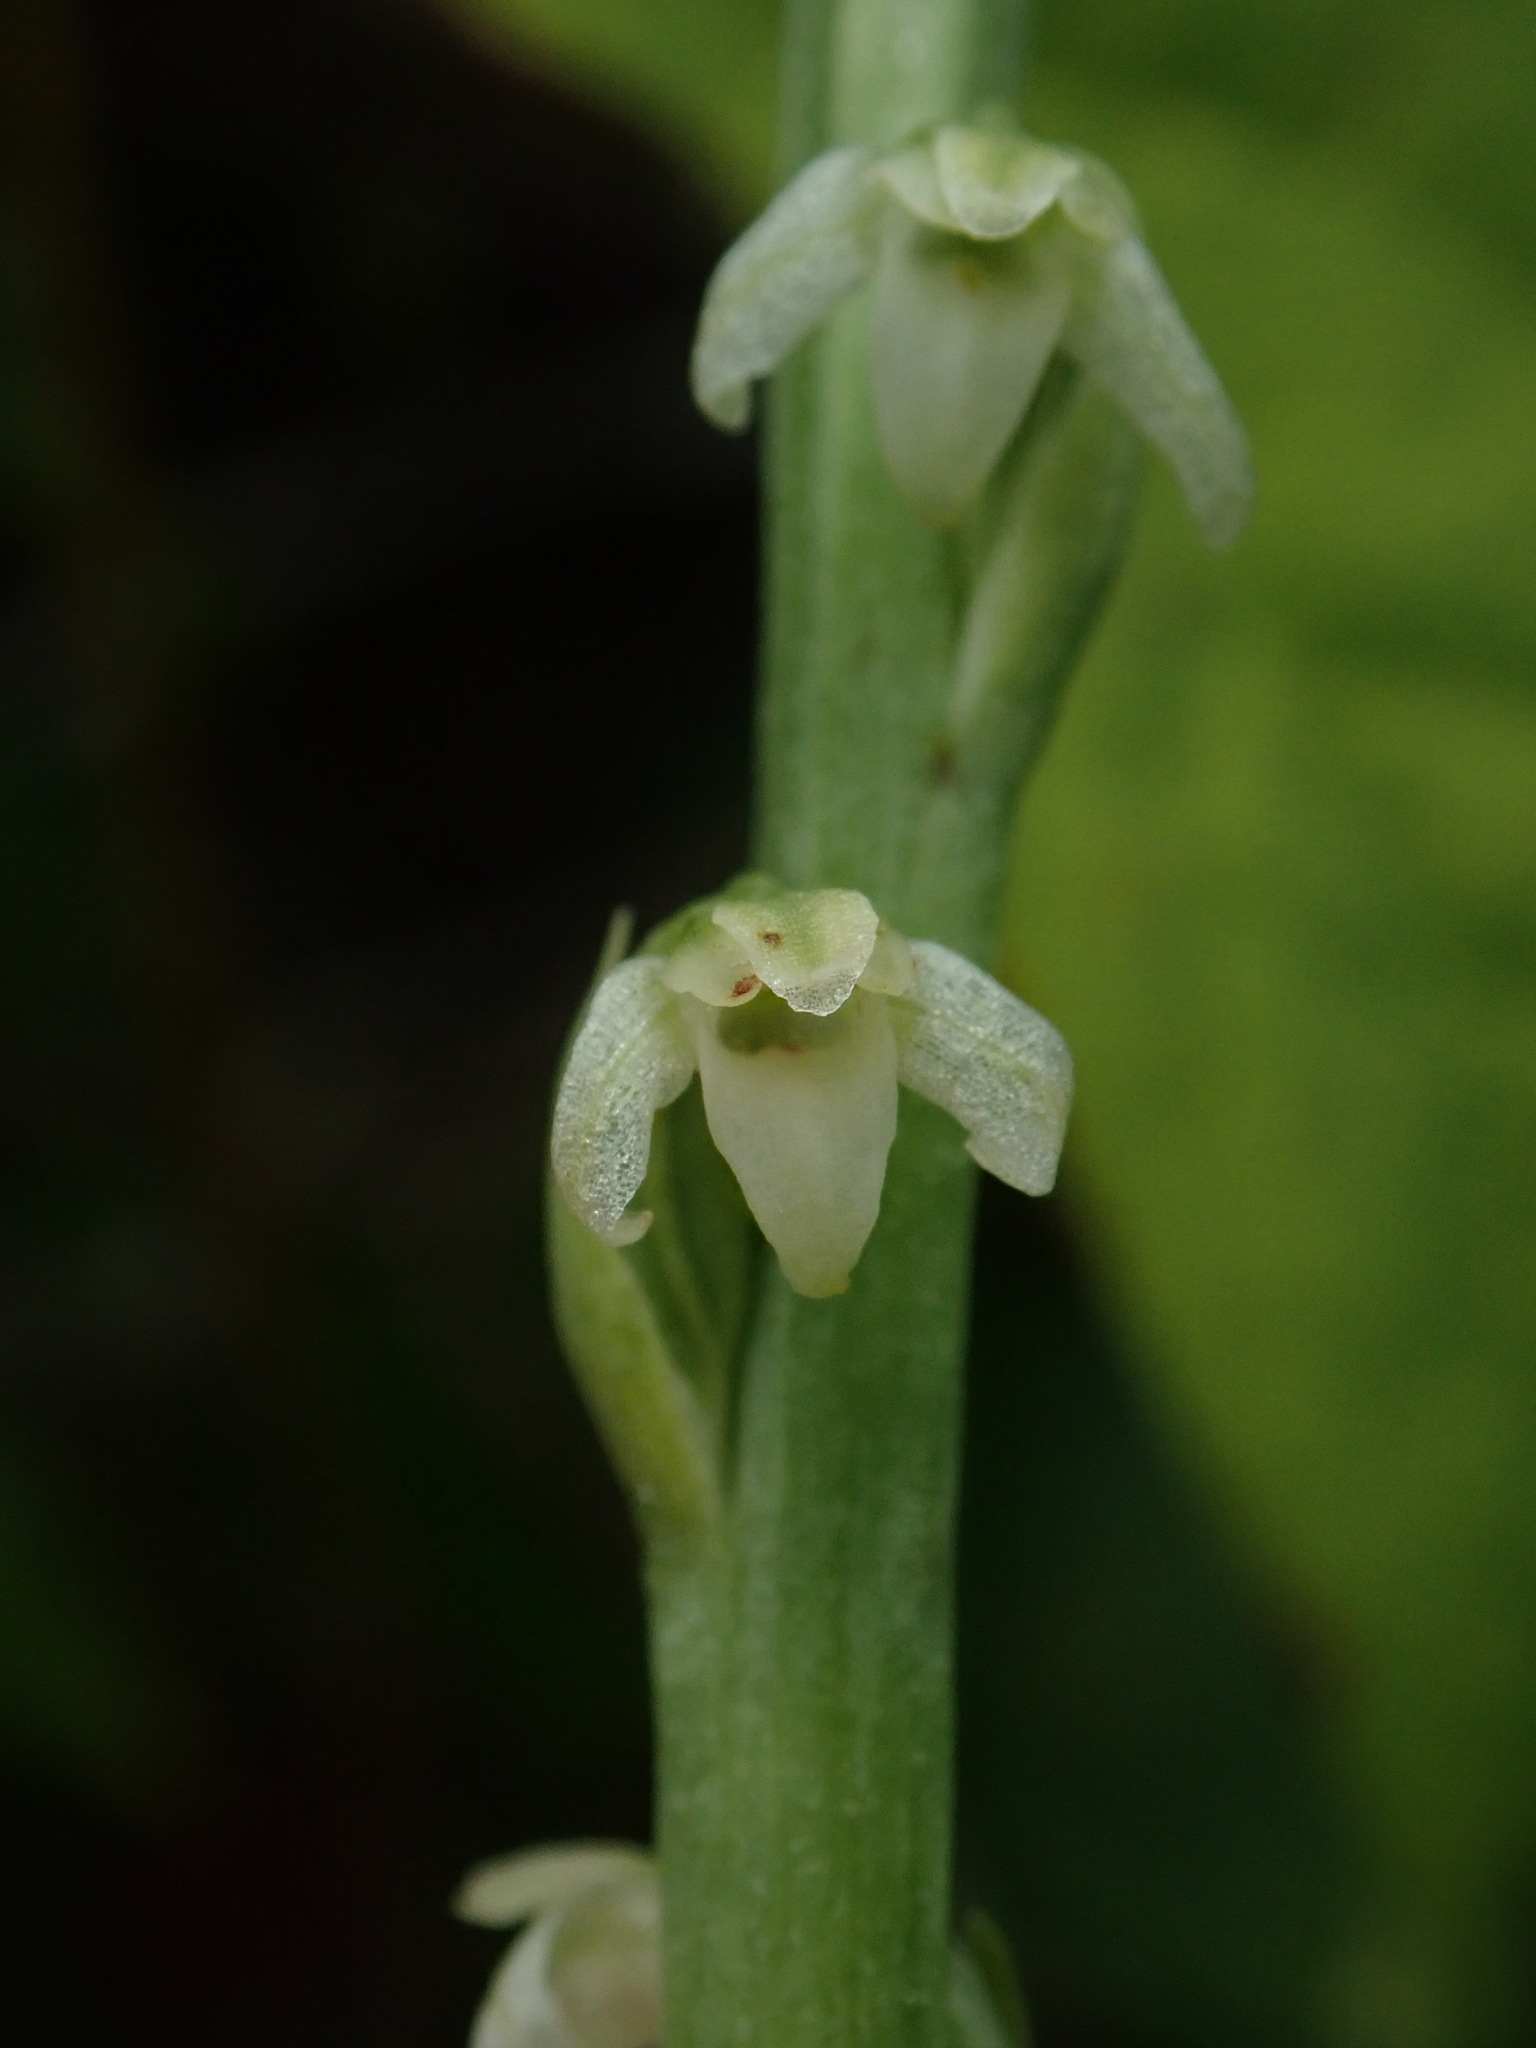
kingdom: Plantae
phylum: Tracheophyta
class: Liliopsida
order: Asparagales
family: Orchidaceae
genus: Platanthera
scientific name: Platanthera ephemerantha
